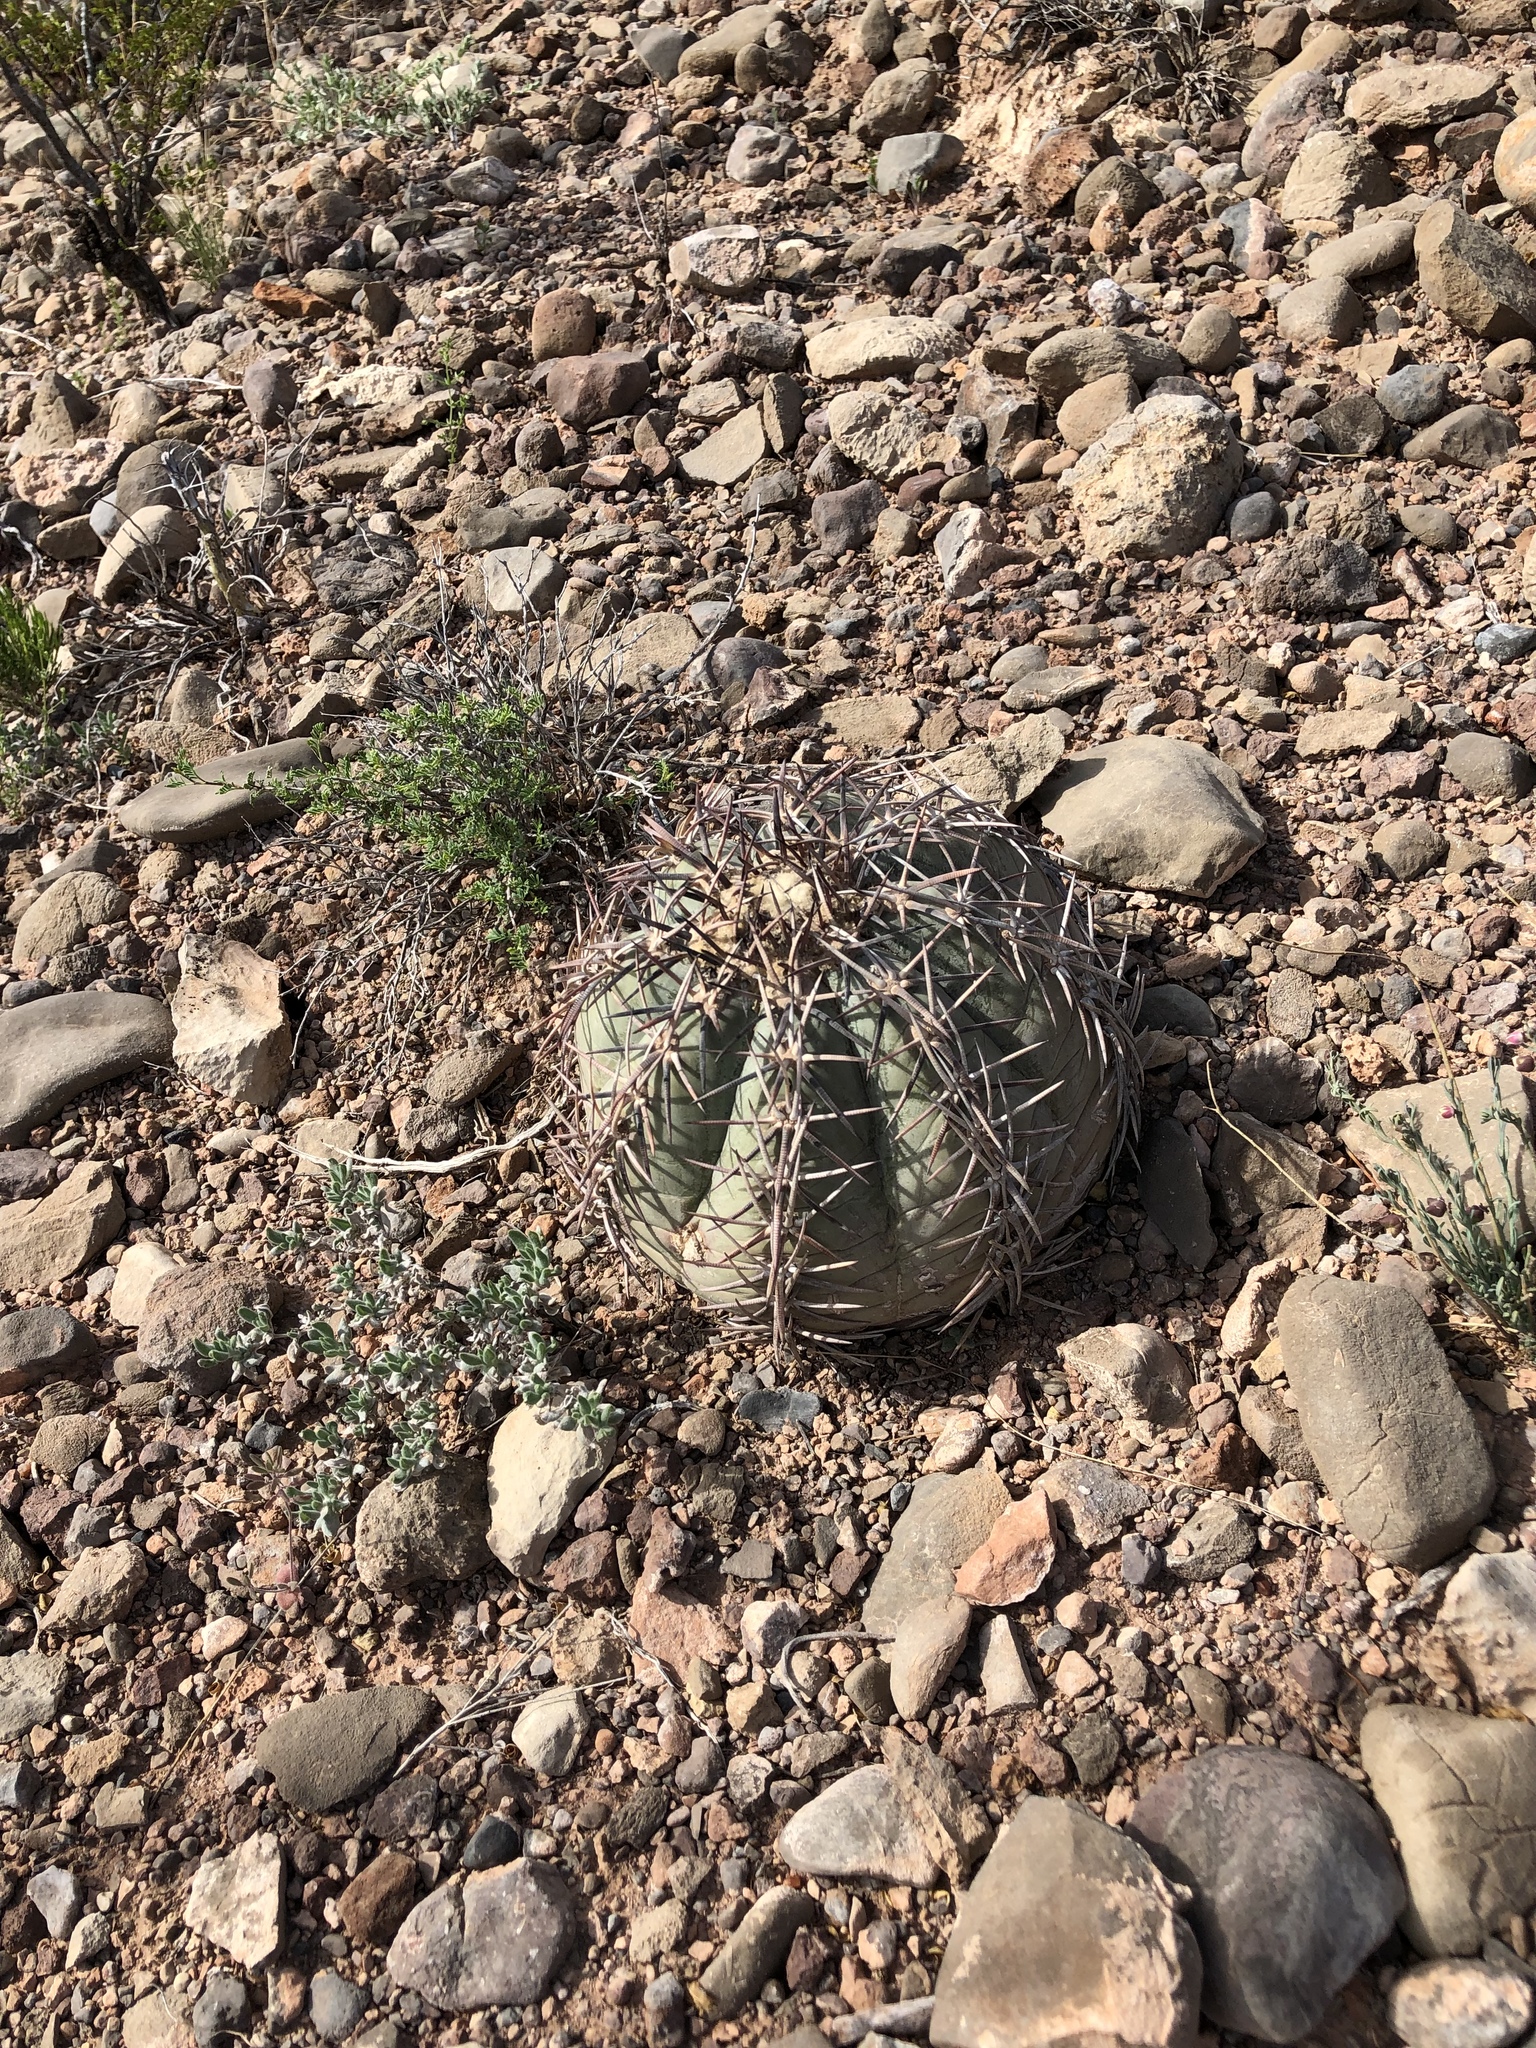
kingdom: Plantae
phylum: Tracheophyta
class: Magnoliopsida
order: Caryophyllales
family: Cactaceae
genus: Echinocactus
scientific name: Echinocactus horizonthalonius
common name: Devilshead
